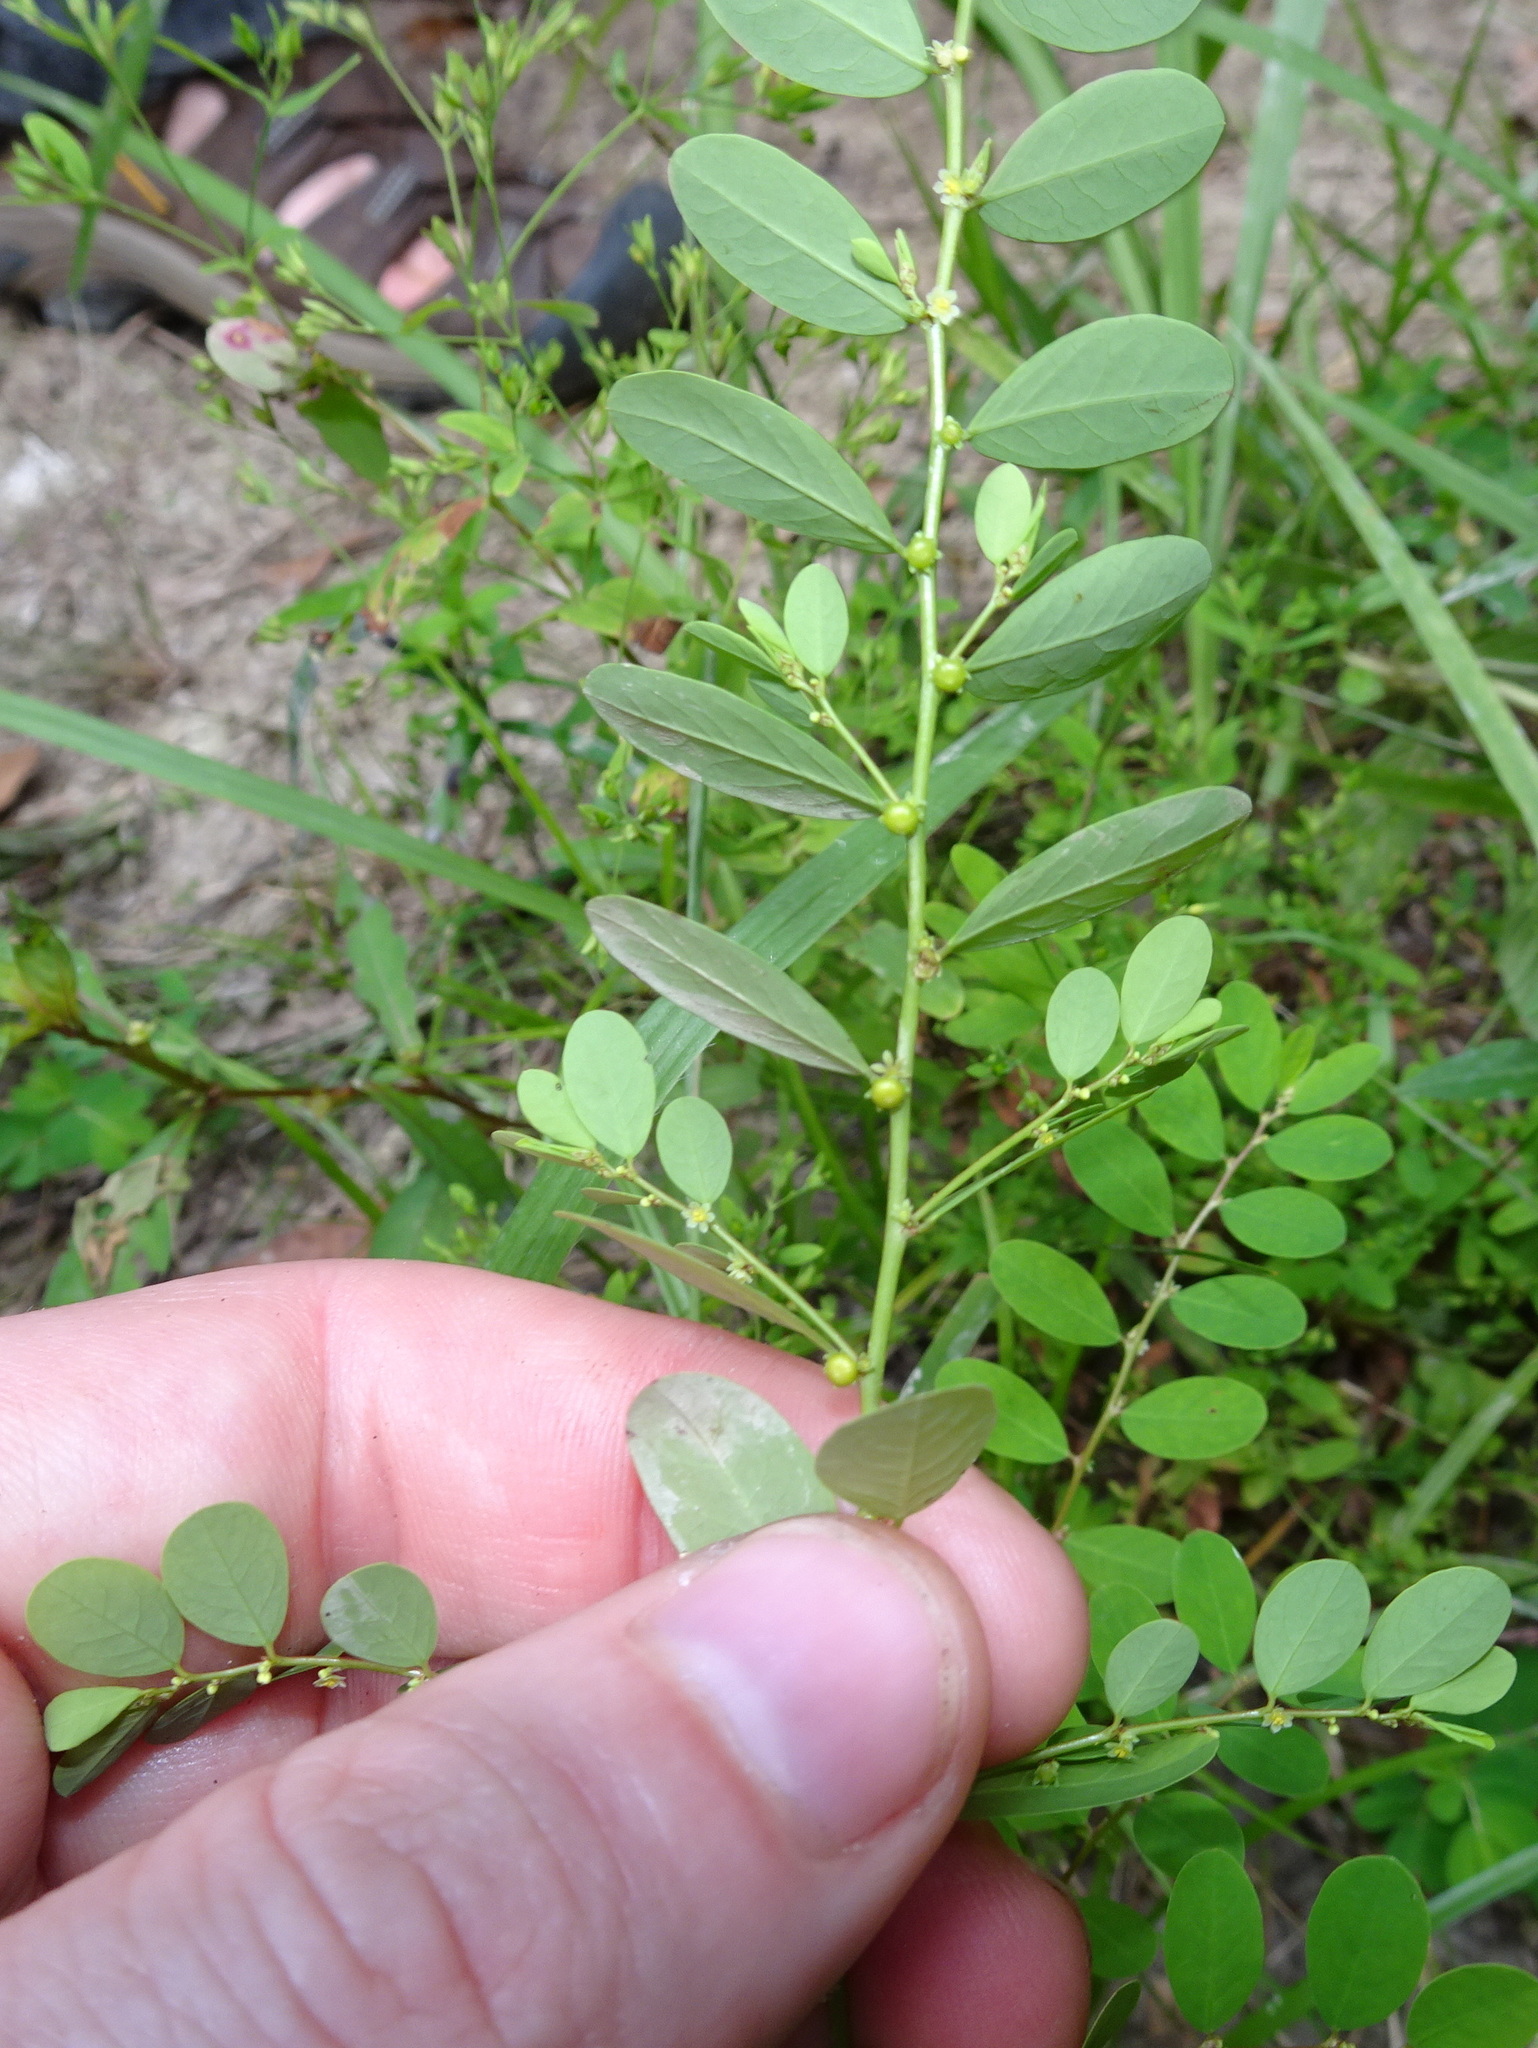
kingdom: Plantae
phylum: Tracheophyta
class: Magnoliopsida
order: Malpighiales
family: Phyllanthaceae
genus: Phyllanthus
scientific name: Phyllanthus caroliniensis
